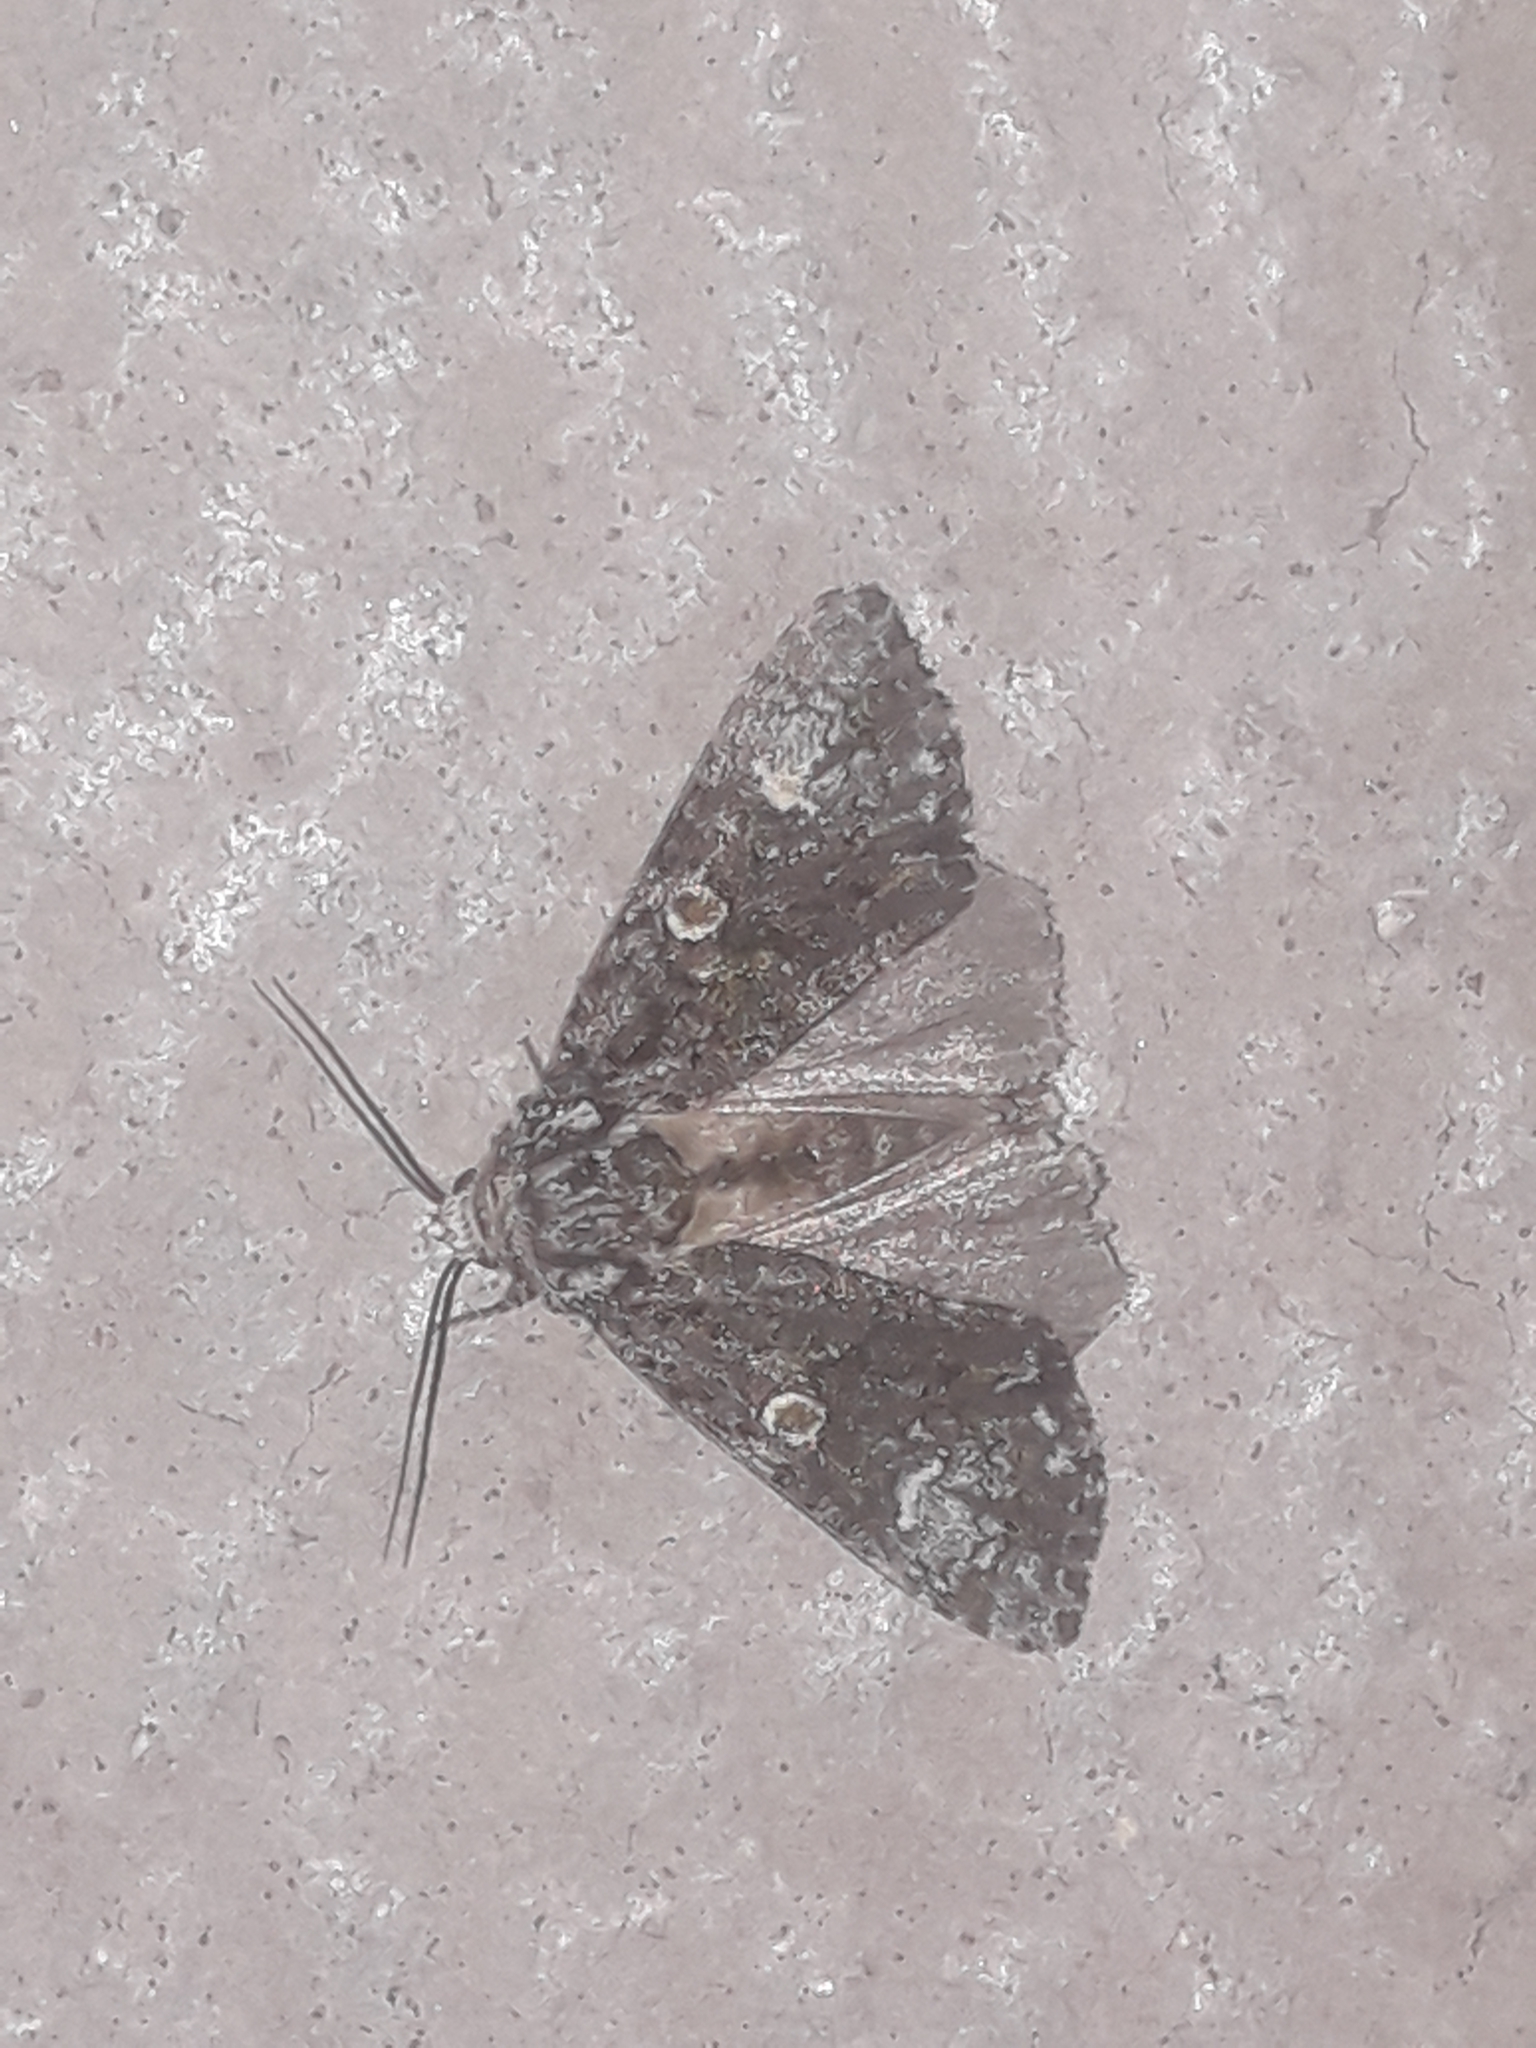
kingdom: Animalia
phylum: Arthropoda
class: Insecta
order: Lepidoptera
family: Noctuidae
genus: Craniophora
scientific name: Craniophora ligustri
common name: Coronet
